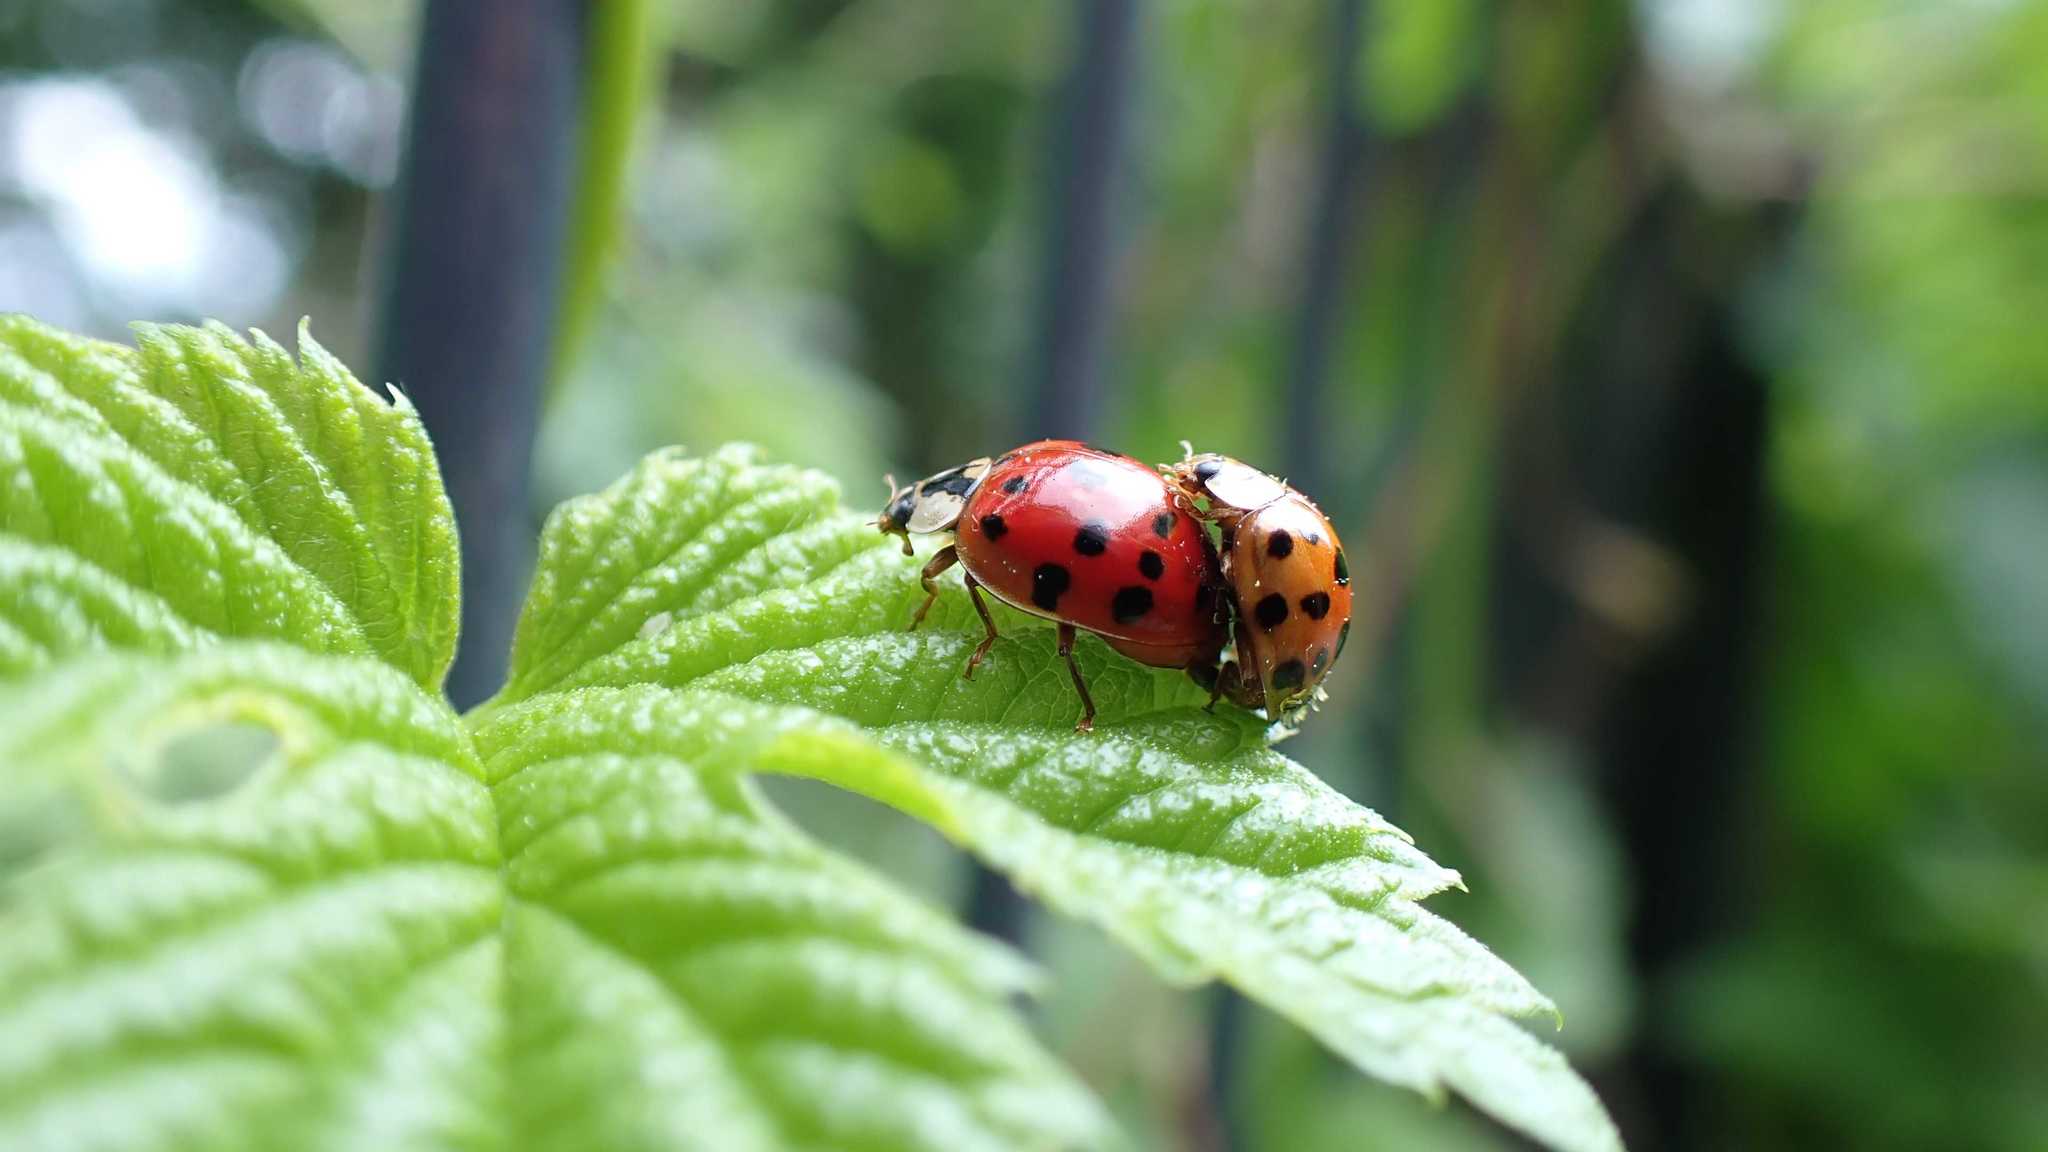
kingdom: Animalia
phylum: Arthropoda
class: Insecta
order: Coleoptera
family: Coccinellidae
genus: Harmonia
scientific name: Harmonia axyridis
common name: Harlequin ladybird
